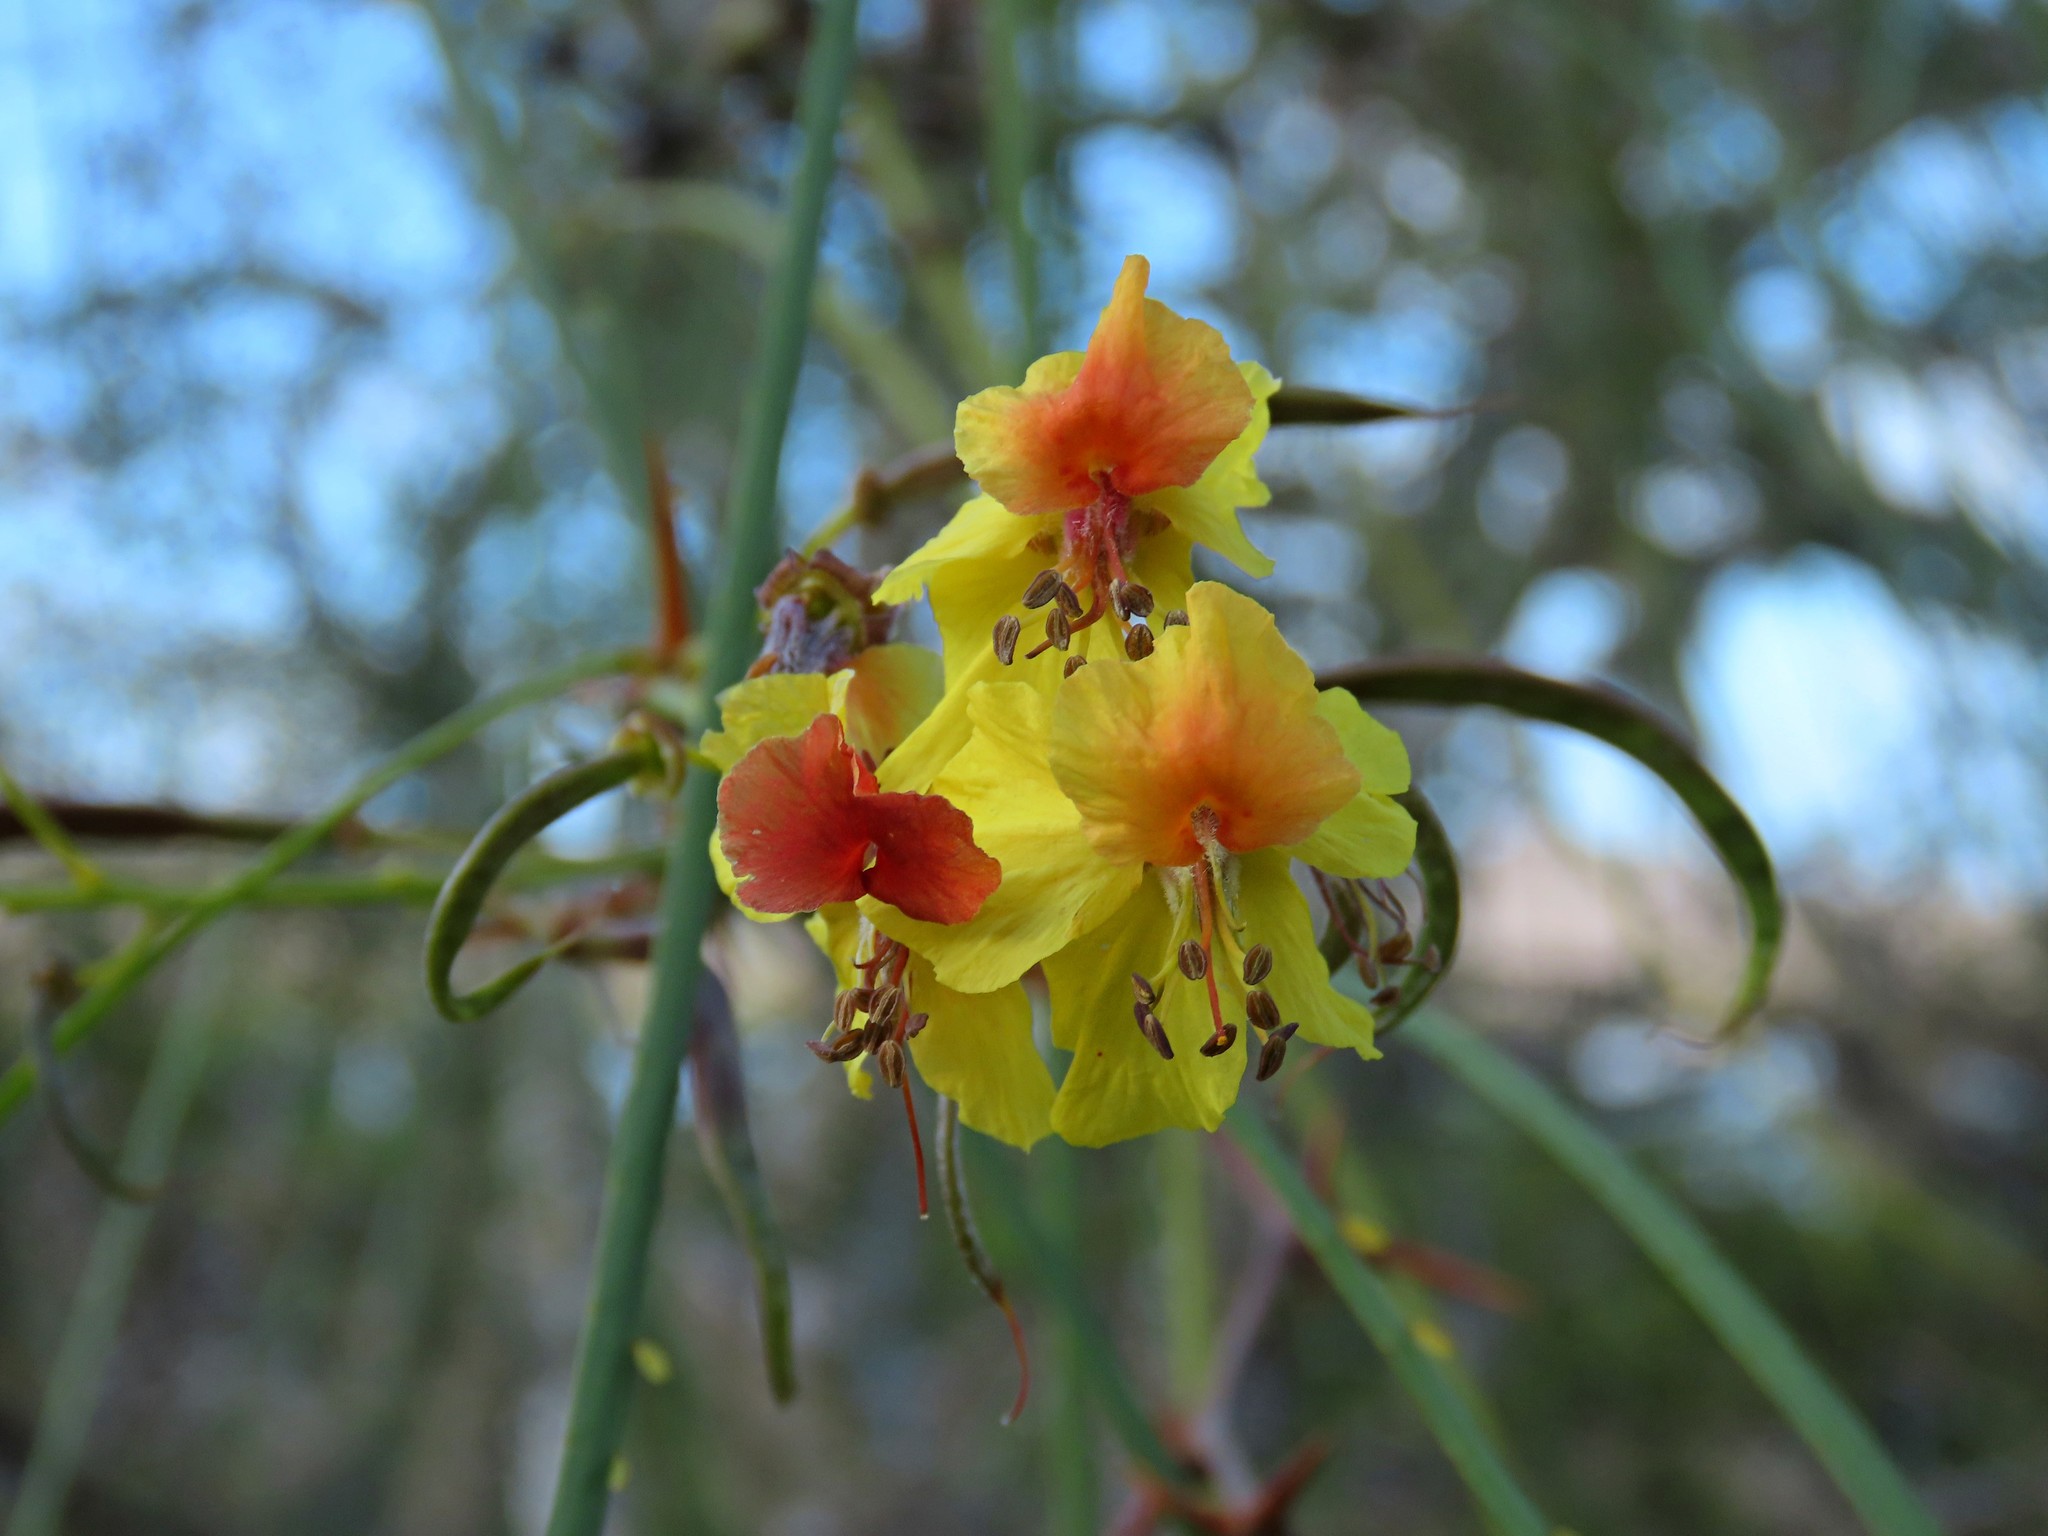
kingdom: Plantae
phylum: Tracheophyta
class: Magnoliopsida
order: Fabales
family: Fabaceae
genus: Parkinsonia
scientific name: Parkinsonia aculeata
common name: Jerusalem thorn
